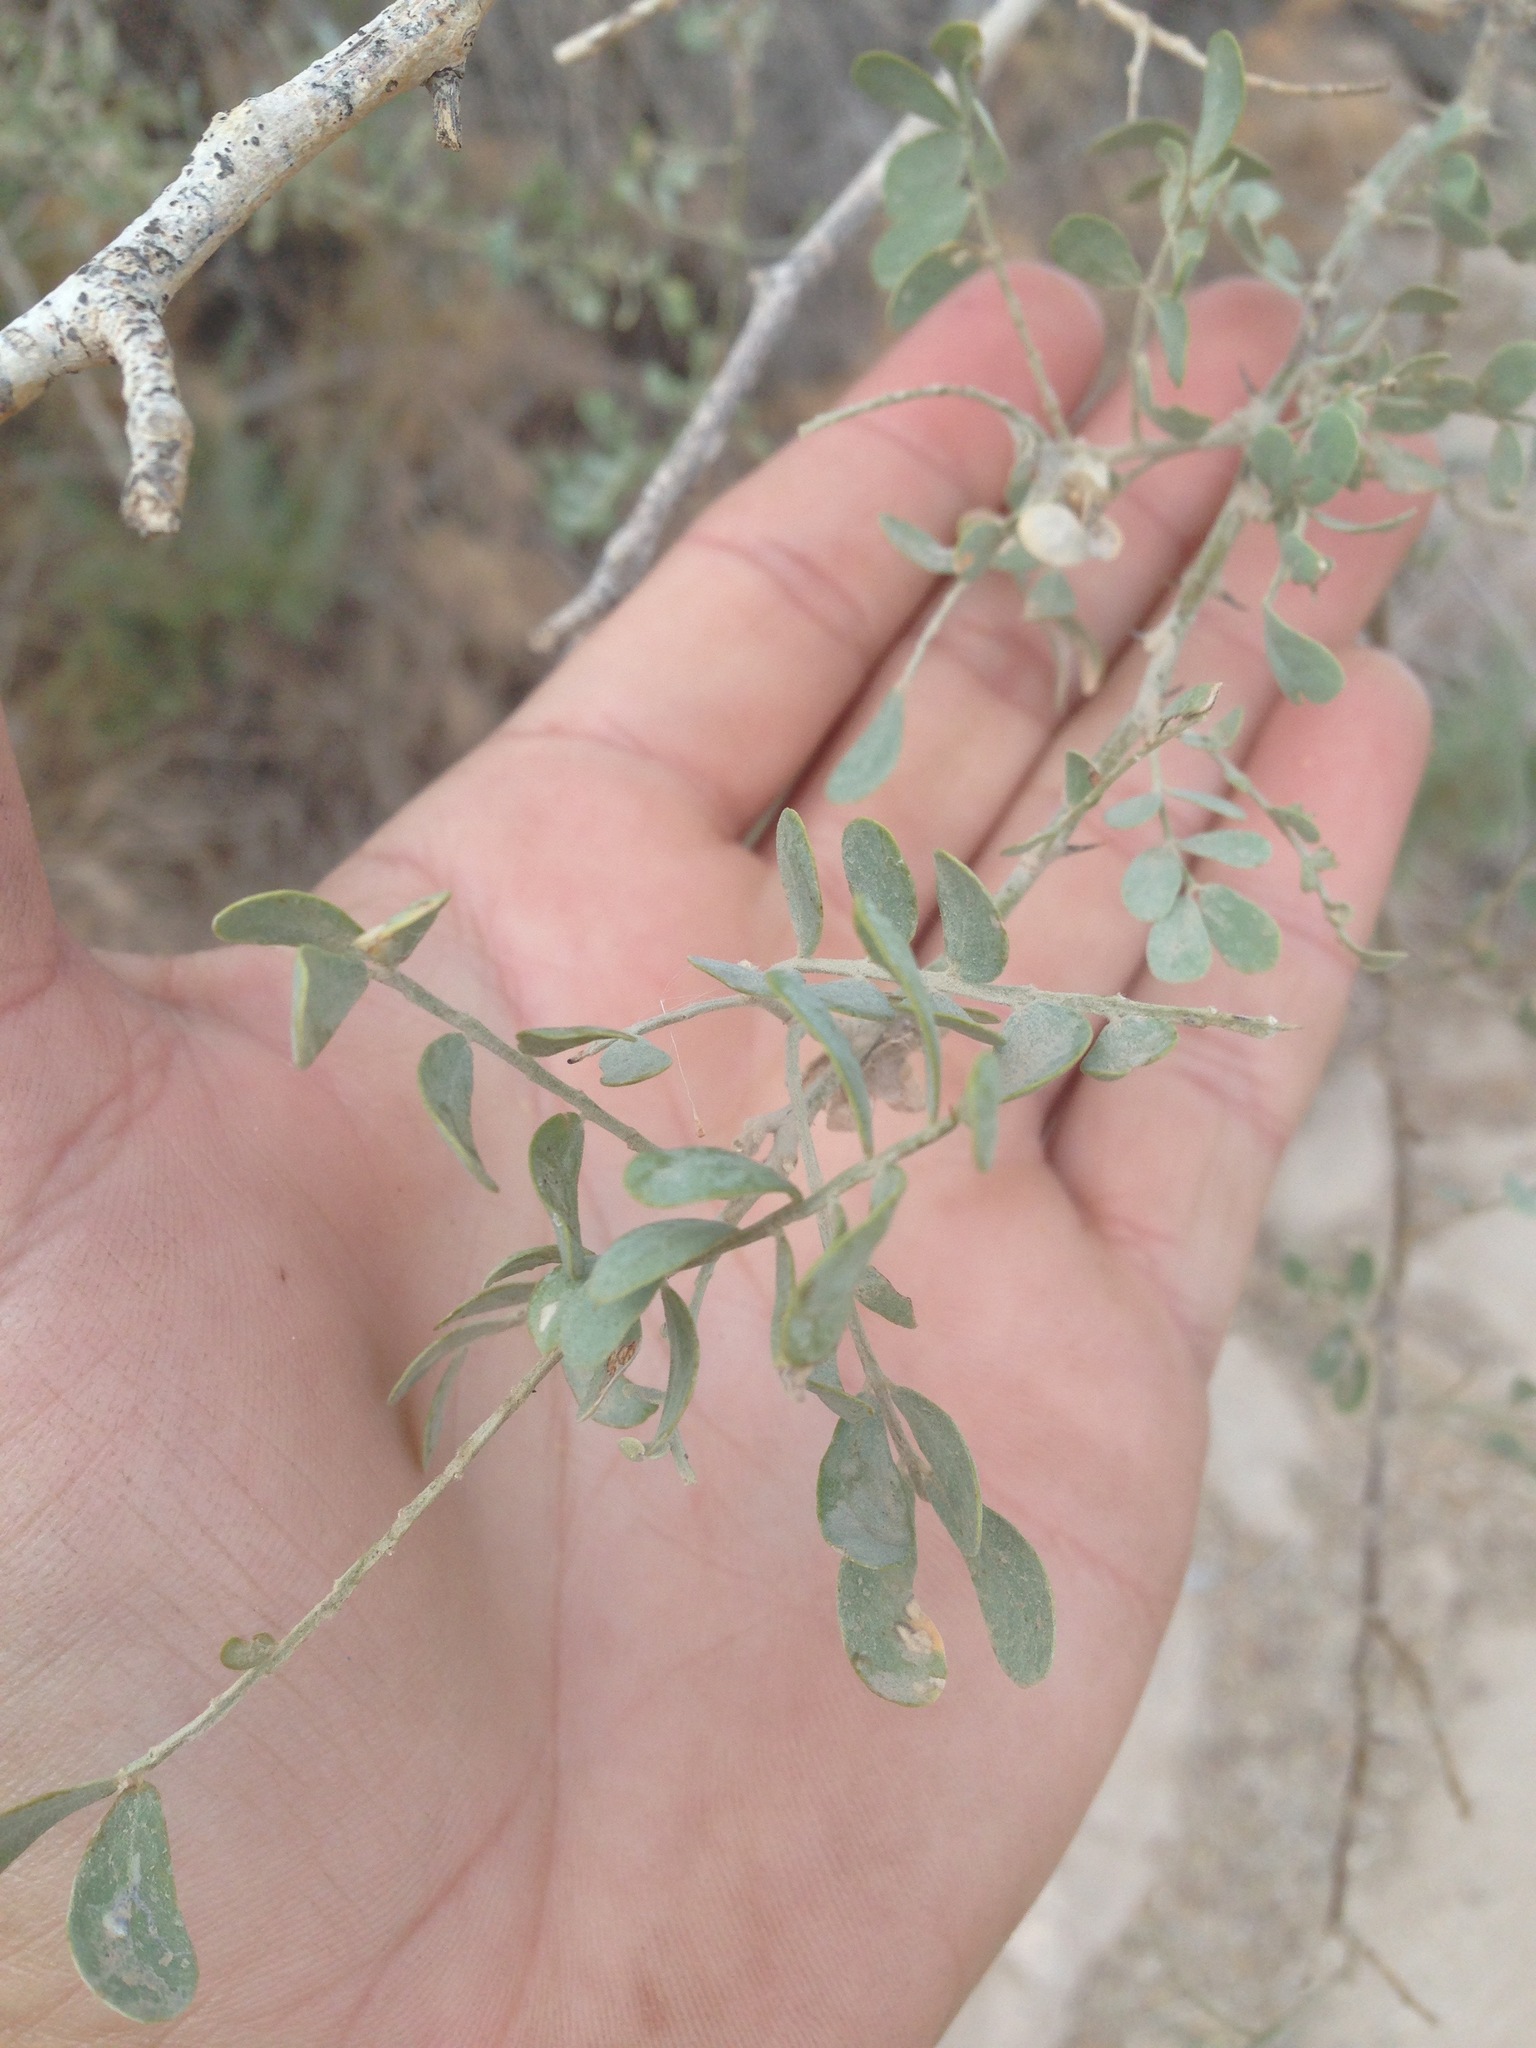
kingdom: Plantae
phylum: Tracheophyta
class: Magnoliopsida
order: Fabales
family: Fabaceae
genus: Olneya
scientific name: Olneya tesota
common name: Desert ironwood
